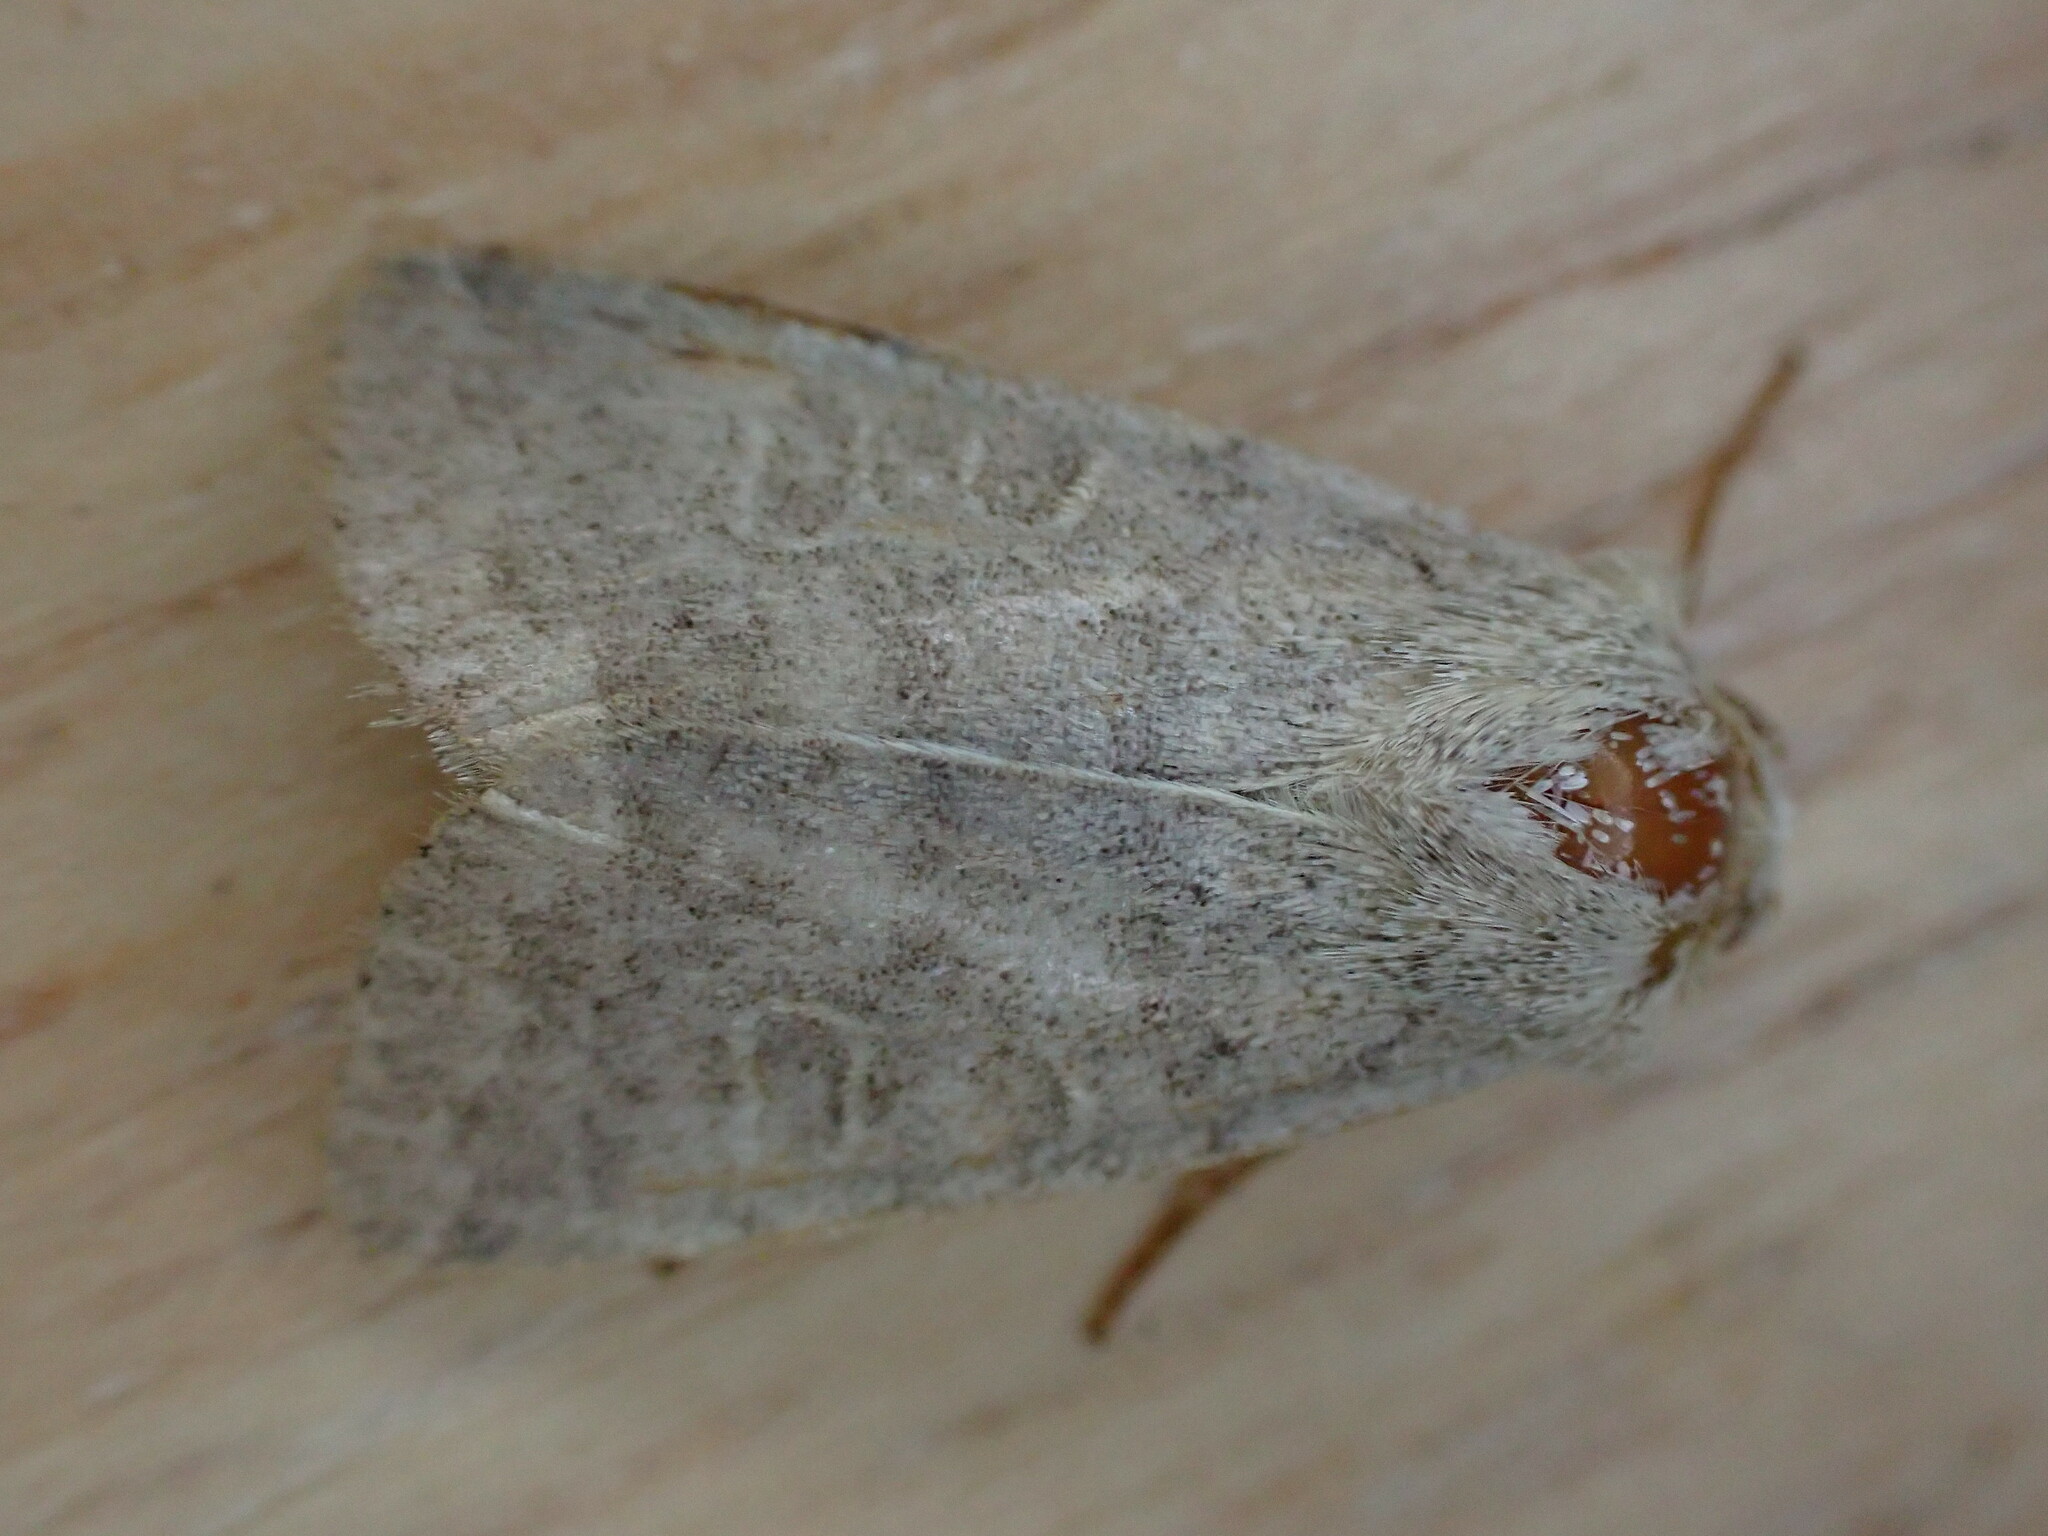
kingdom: Animalia
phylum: Arthropoda
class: Insecta
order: Lepidoptera
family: Noctuidae
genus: Hoplodrina
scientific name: Hoplodrina ambigua
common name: Vine's rustic
